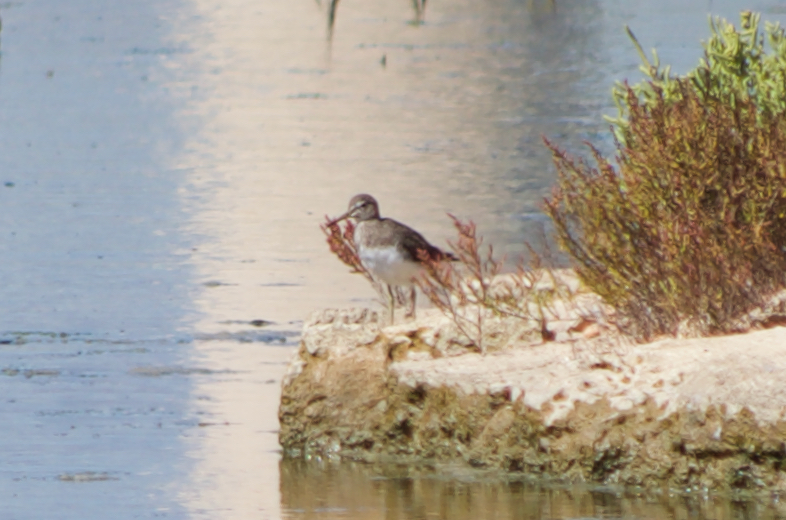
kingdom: Animalia
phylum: Chordata
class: Aves
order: Charadriiformes
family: Scolopacidae
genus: Tringa
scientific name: Tringa ochropus
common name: Green sandpiper
